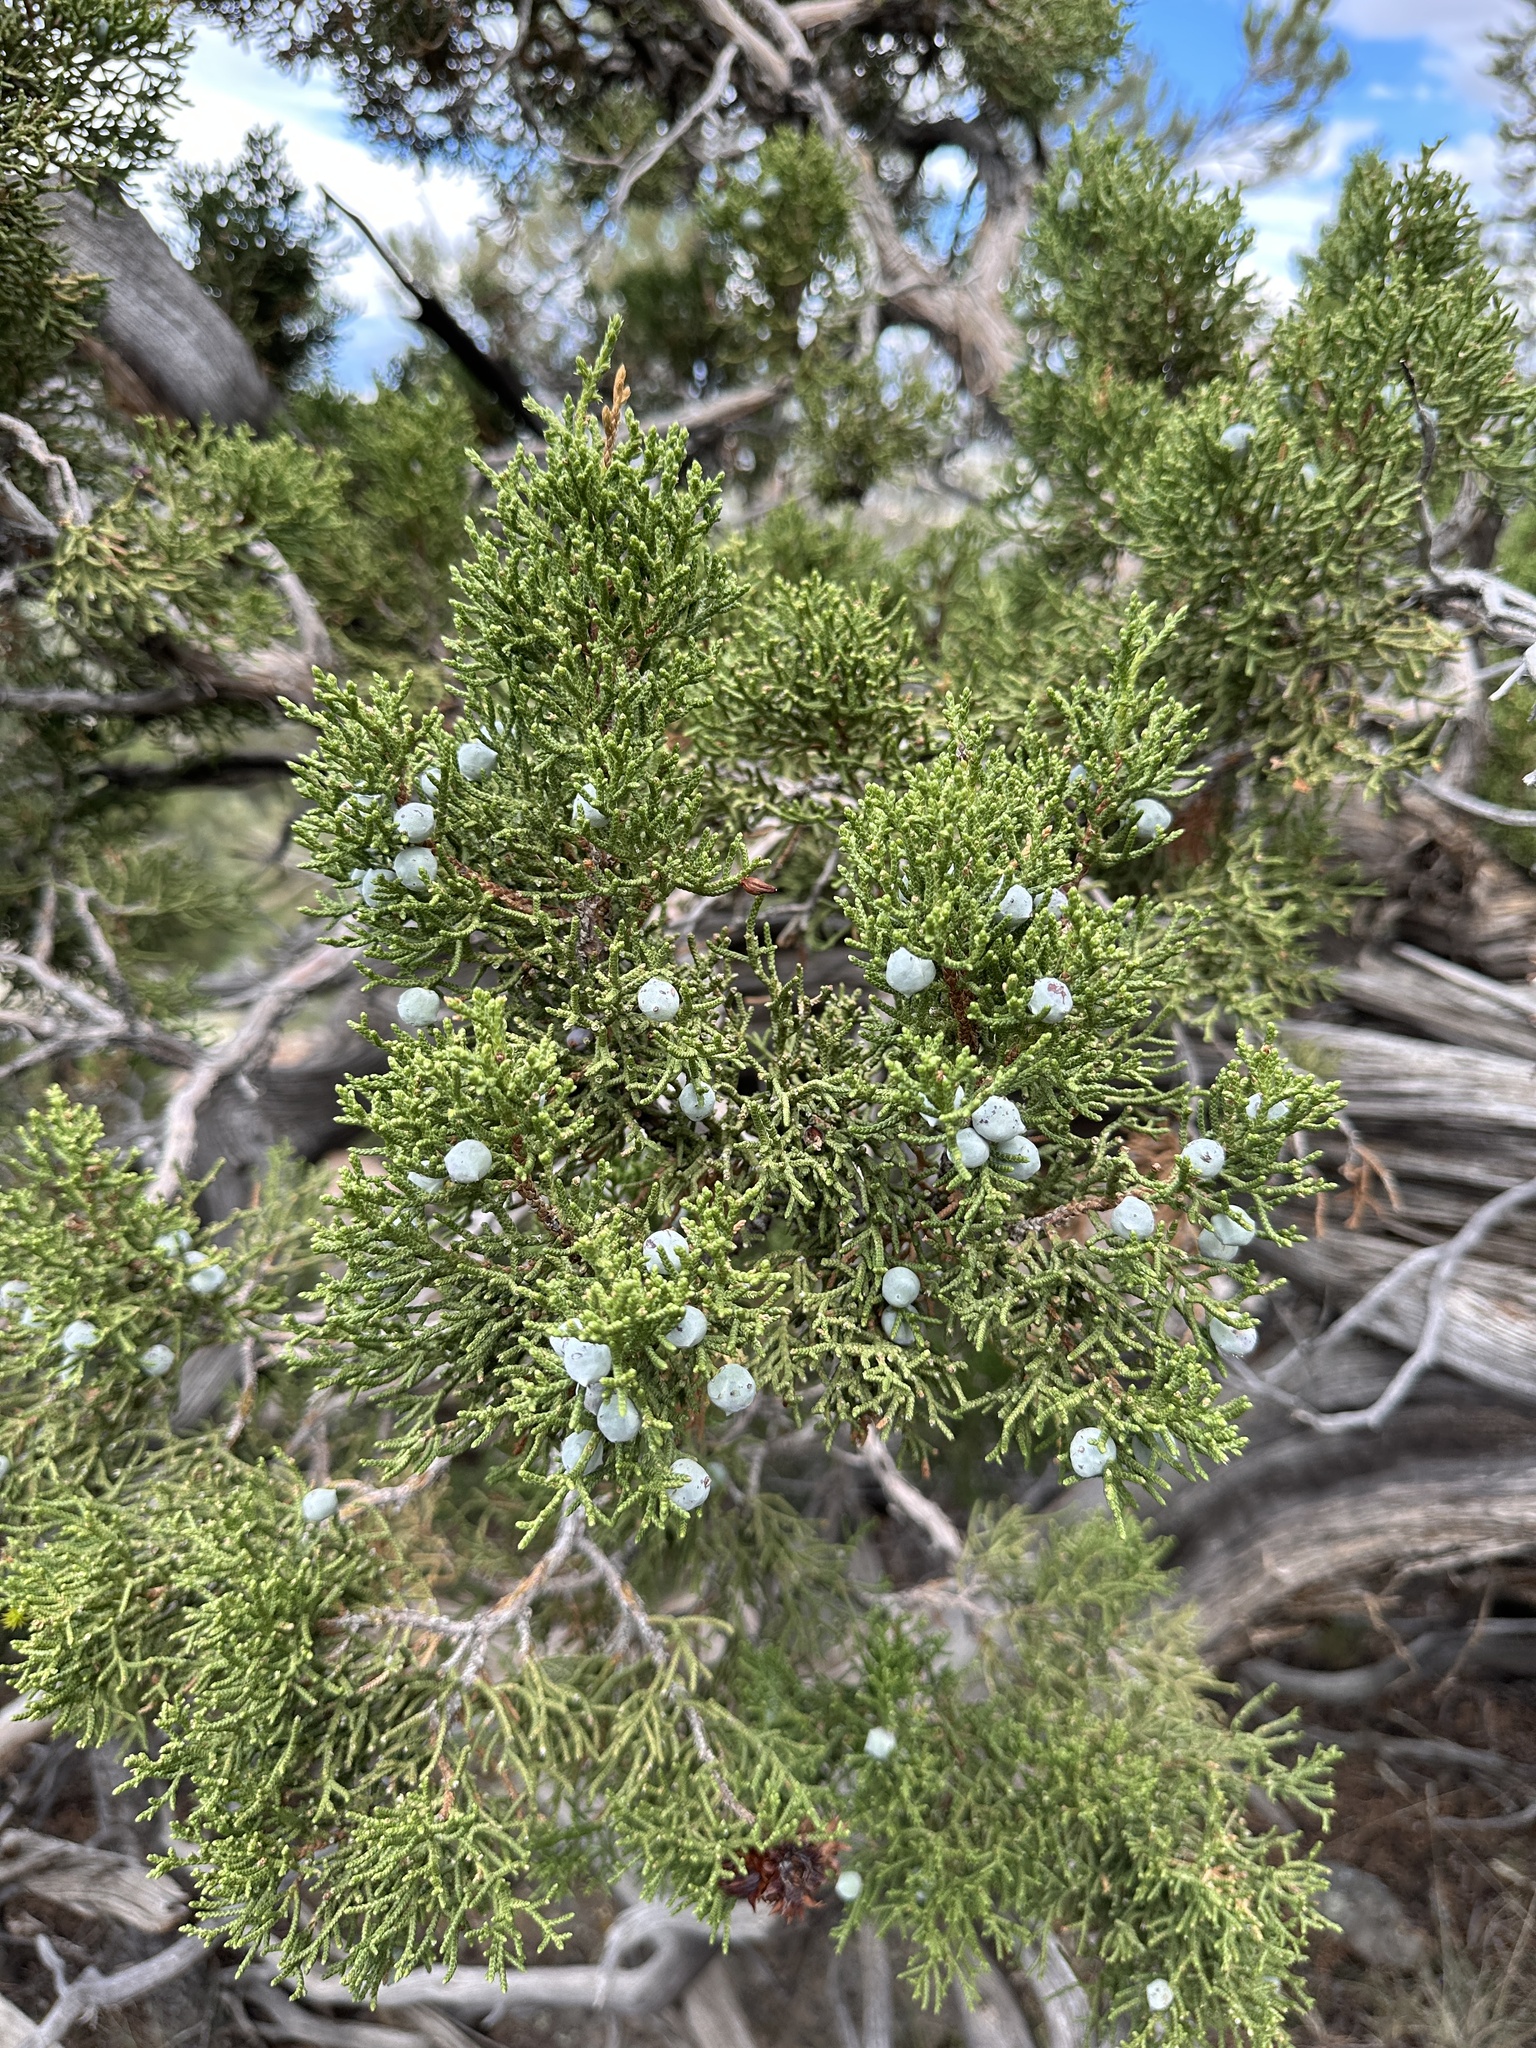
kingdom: Plantae
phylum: Tracheophyta
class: Pinopsida
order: Pinales
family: Cupressaceae
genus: Juniperus
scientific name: Juniperus osteosperma
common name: Utah juniper
